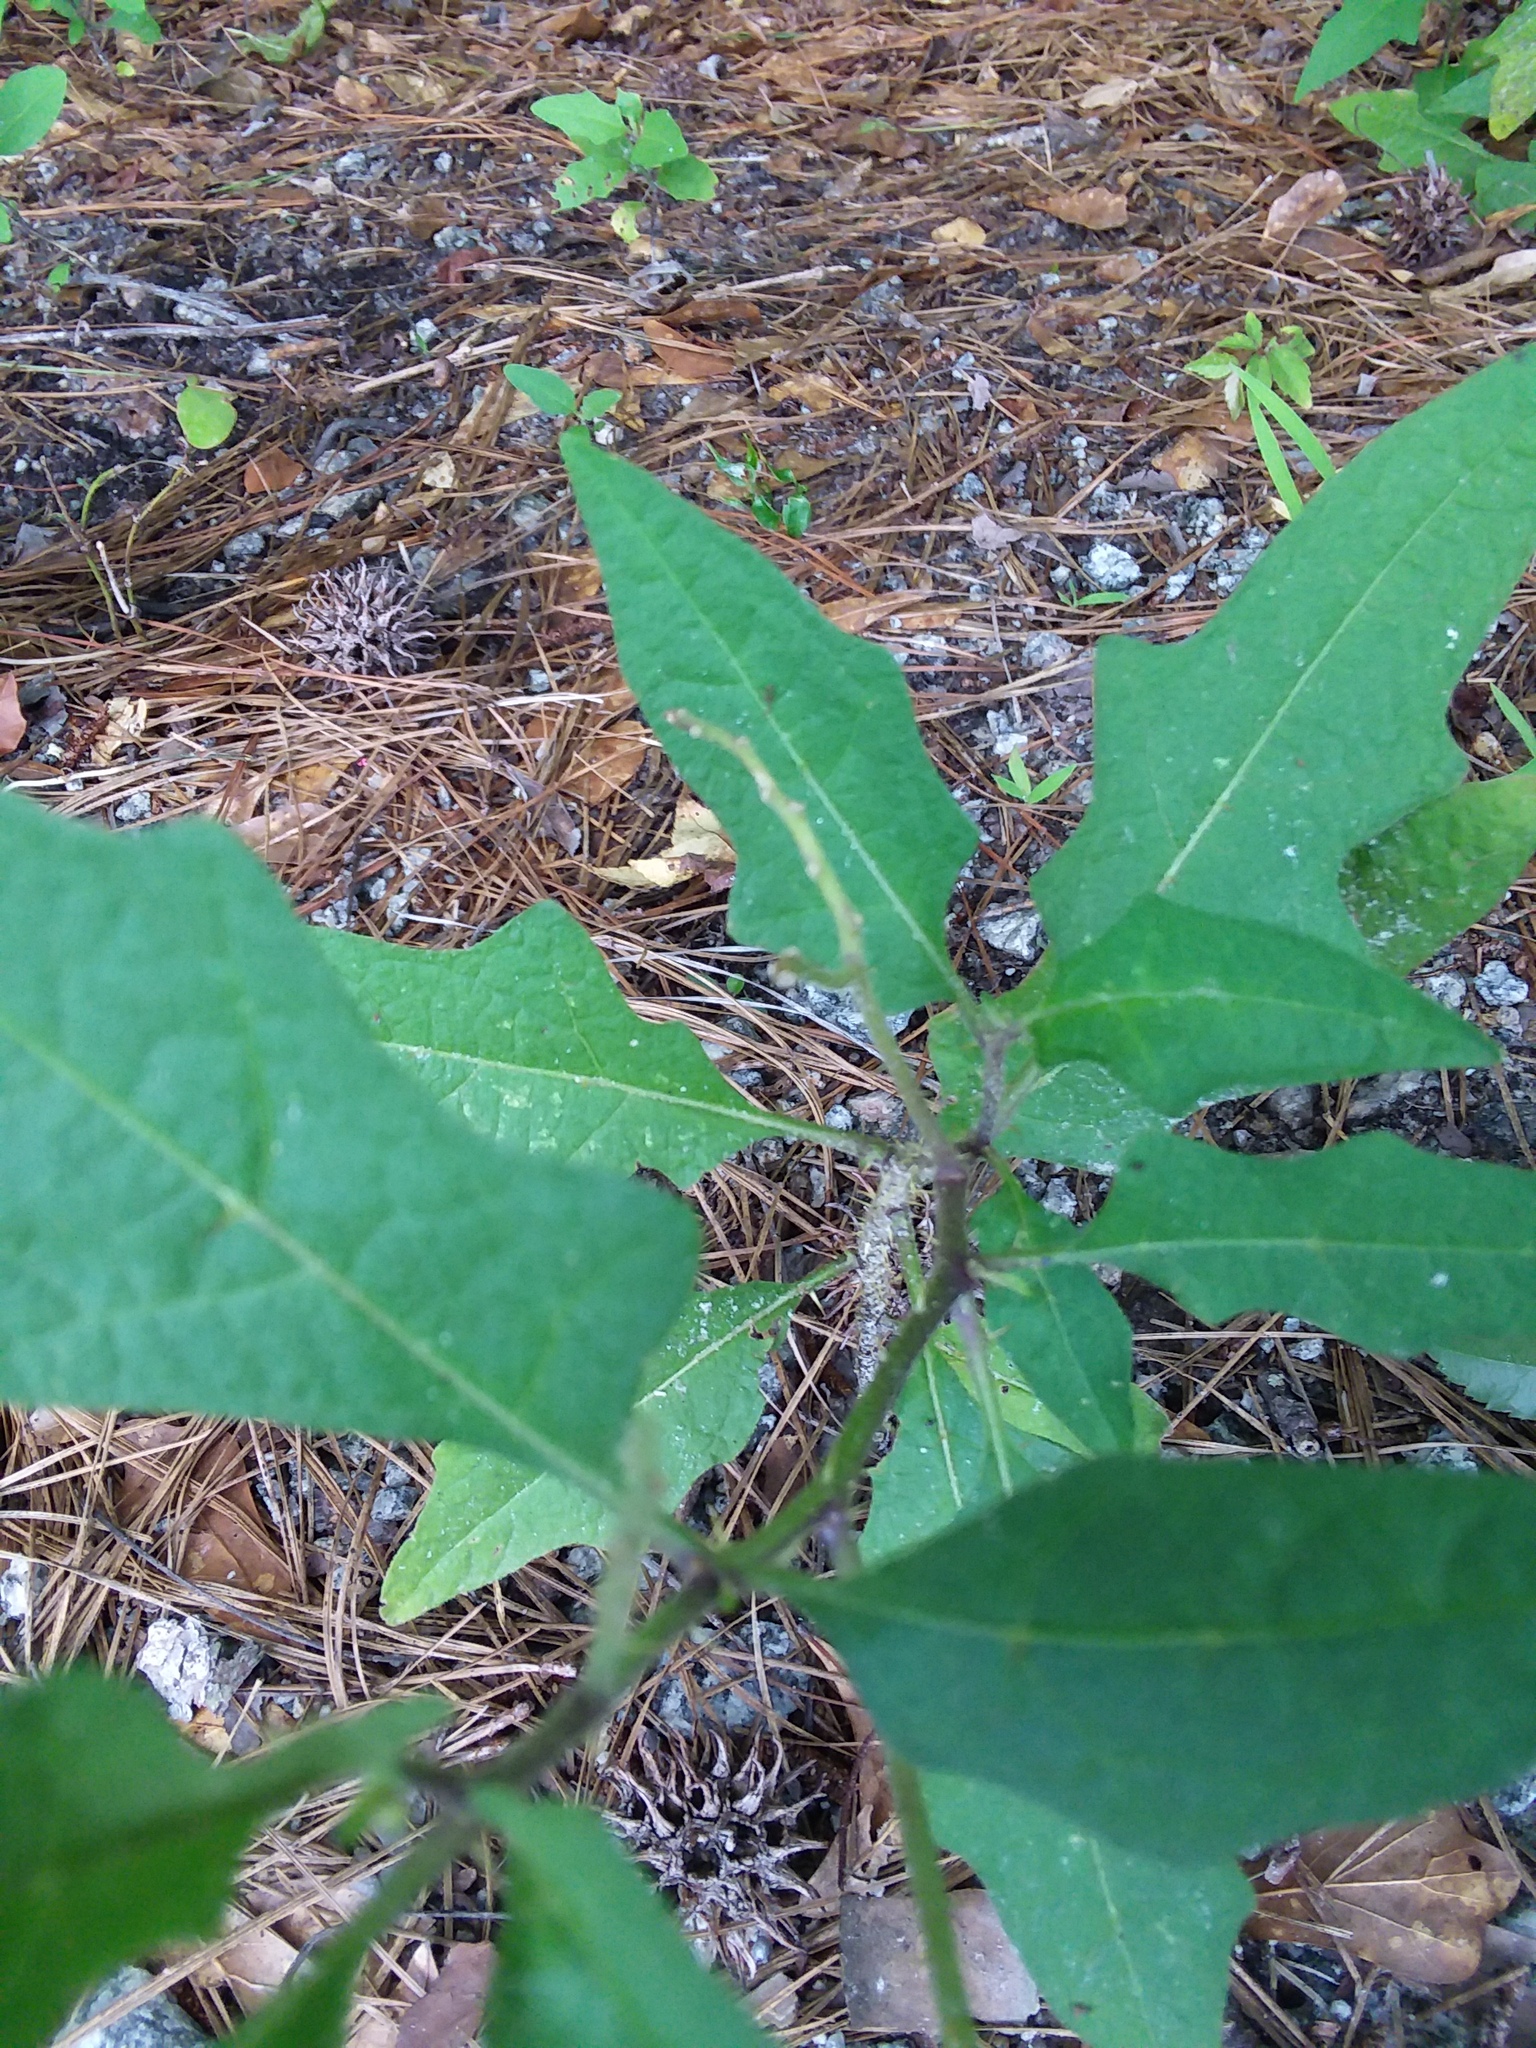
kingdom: Plantae
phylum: Tracheophyta
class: Magnoliopsida
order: Solanales
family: Solanaceae
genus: Solanum
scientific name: Solanum carolinense
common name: Horse-nettle
